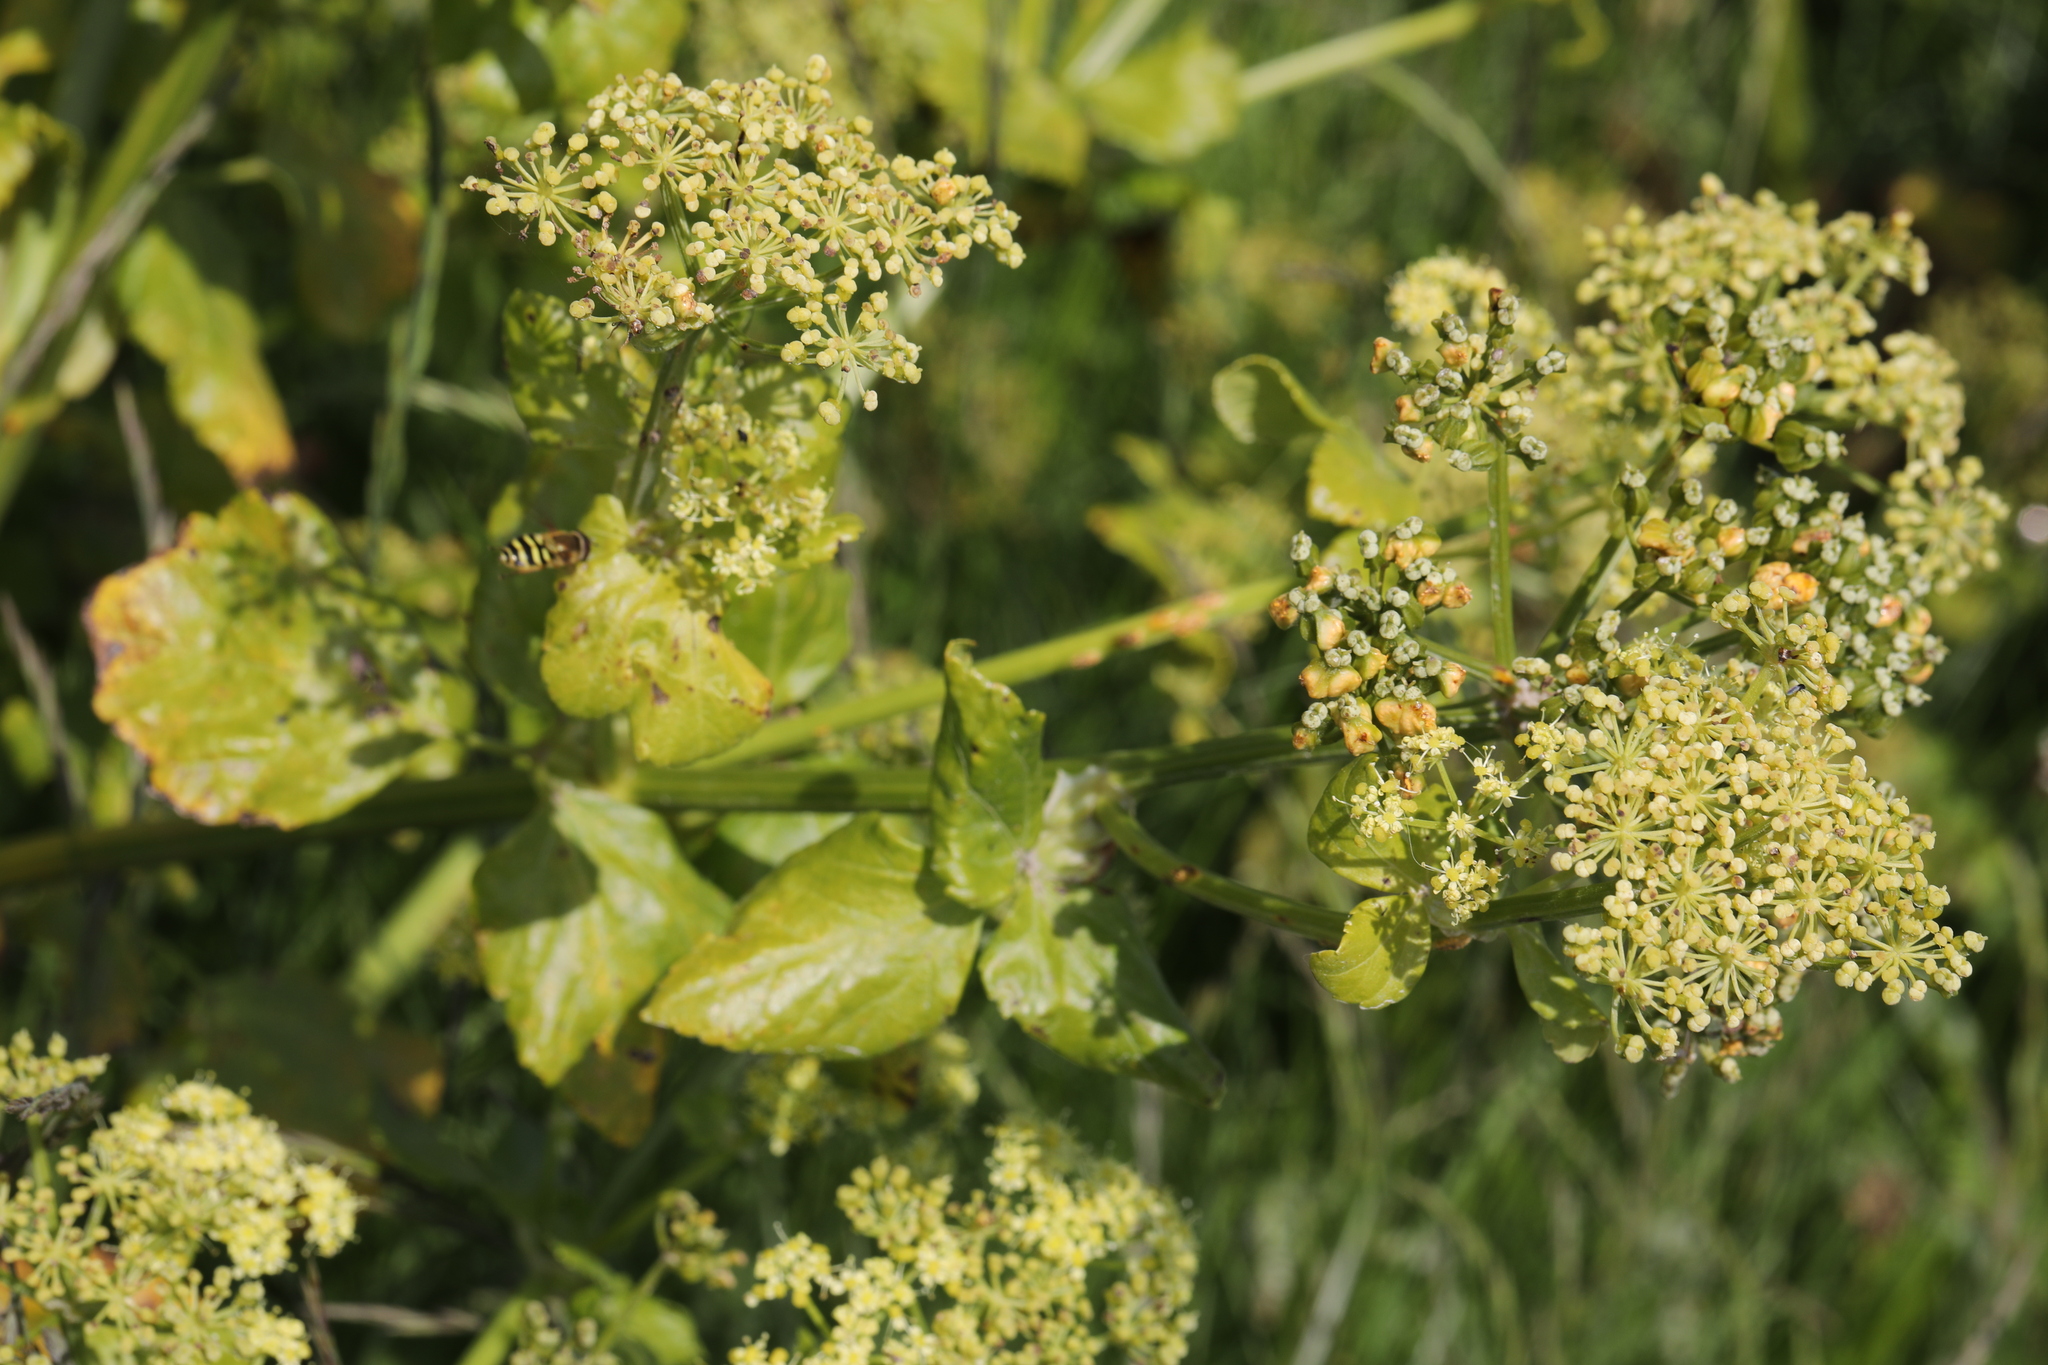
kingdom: Plantae
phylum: Tracheophyta
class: Magnoliopsida
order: Apiales
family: Apiaceae
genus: Smyrnium
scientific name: Smyrnium olusatrum
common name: Alexanders
